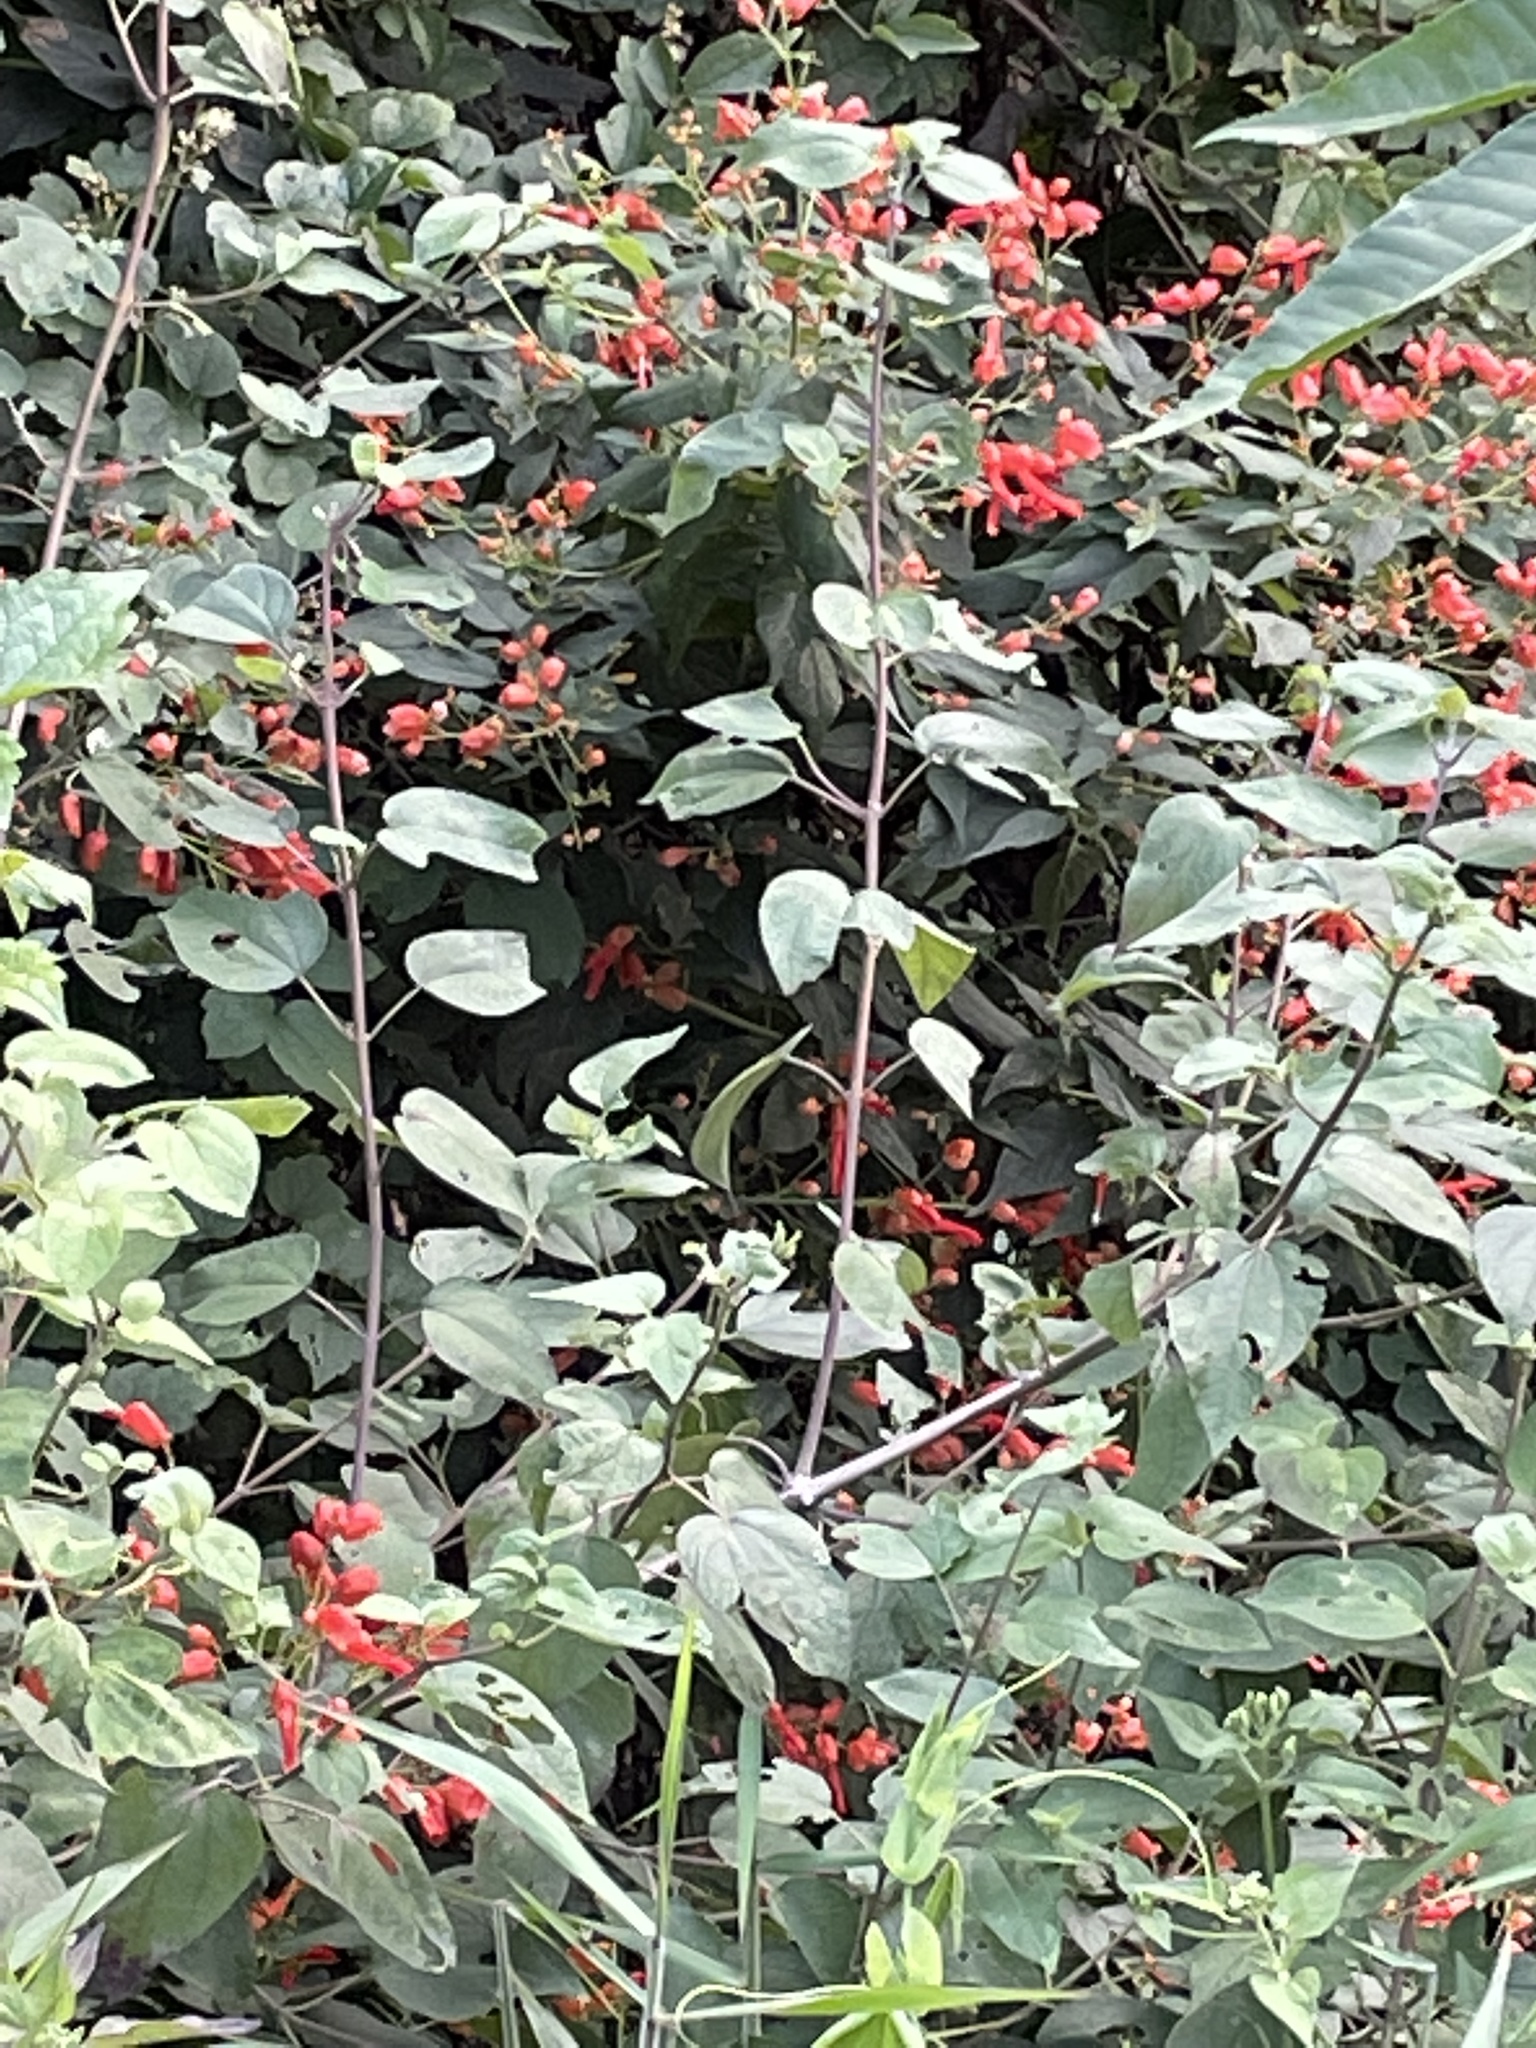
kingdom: Plantae
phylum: Tracheophyta
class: Magnoliopsida
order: Lamiales
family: Lamiaceae
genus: Salvia
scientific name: Salvia sessei
